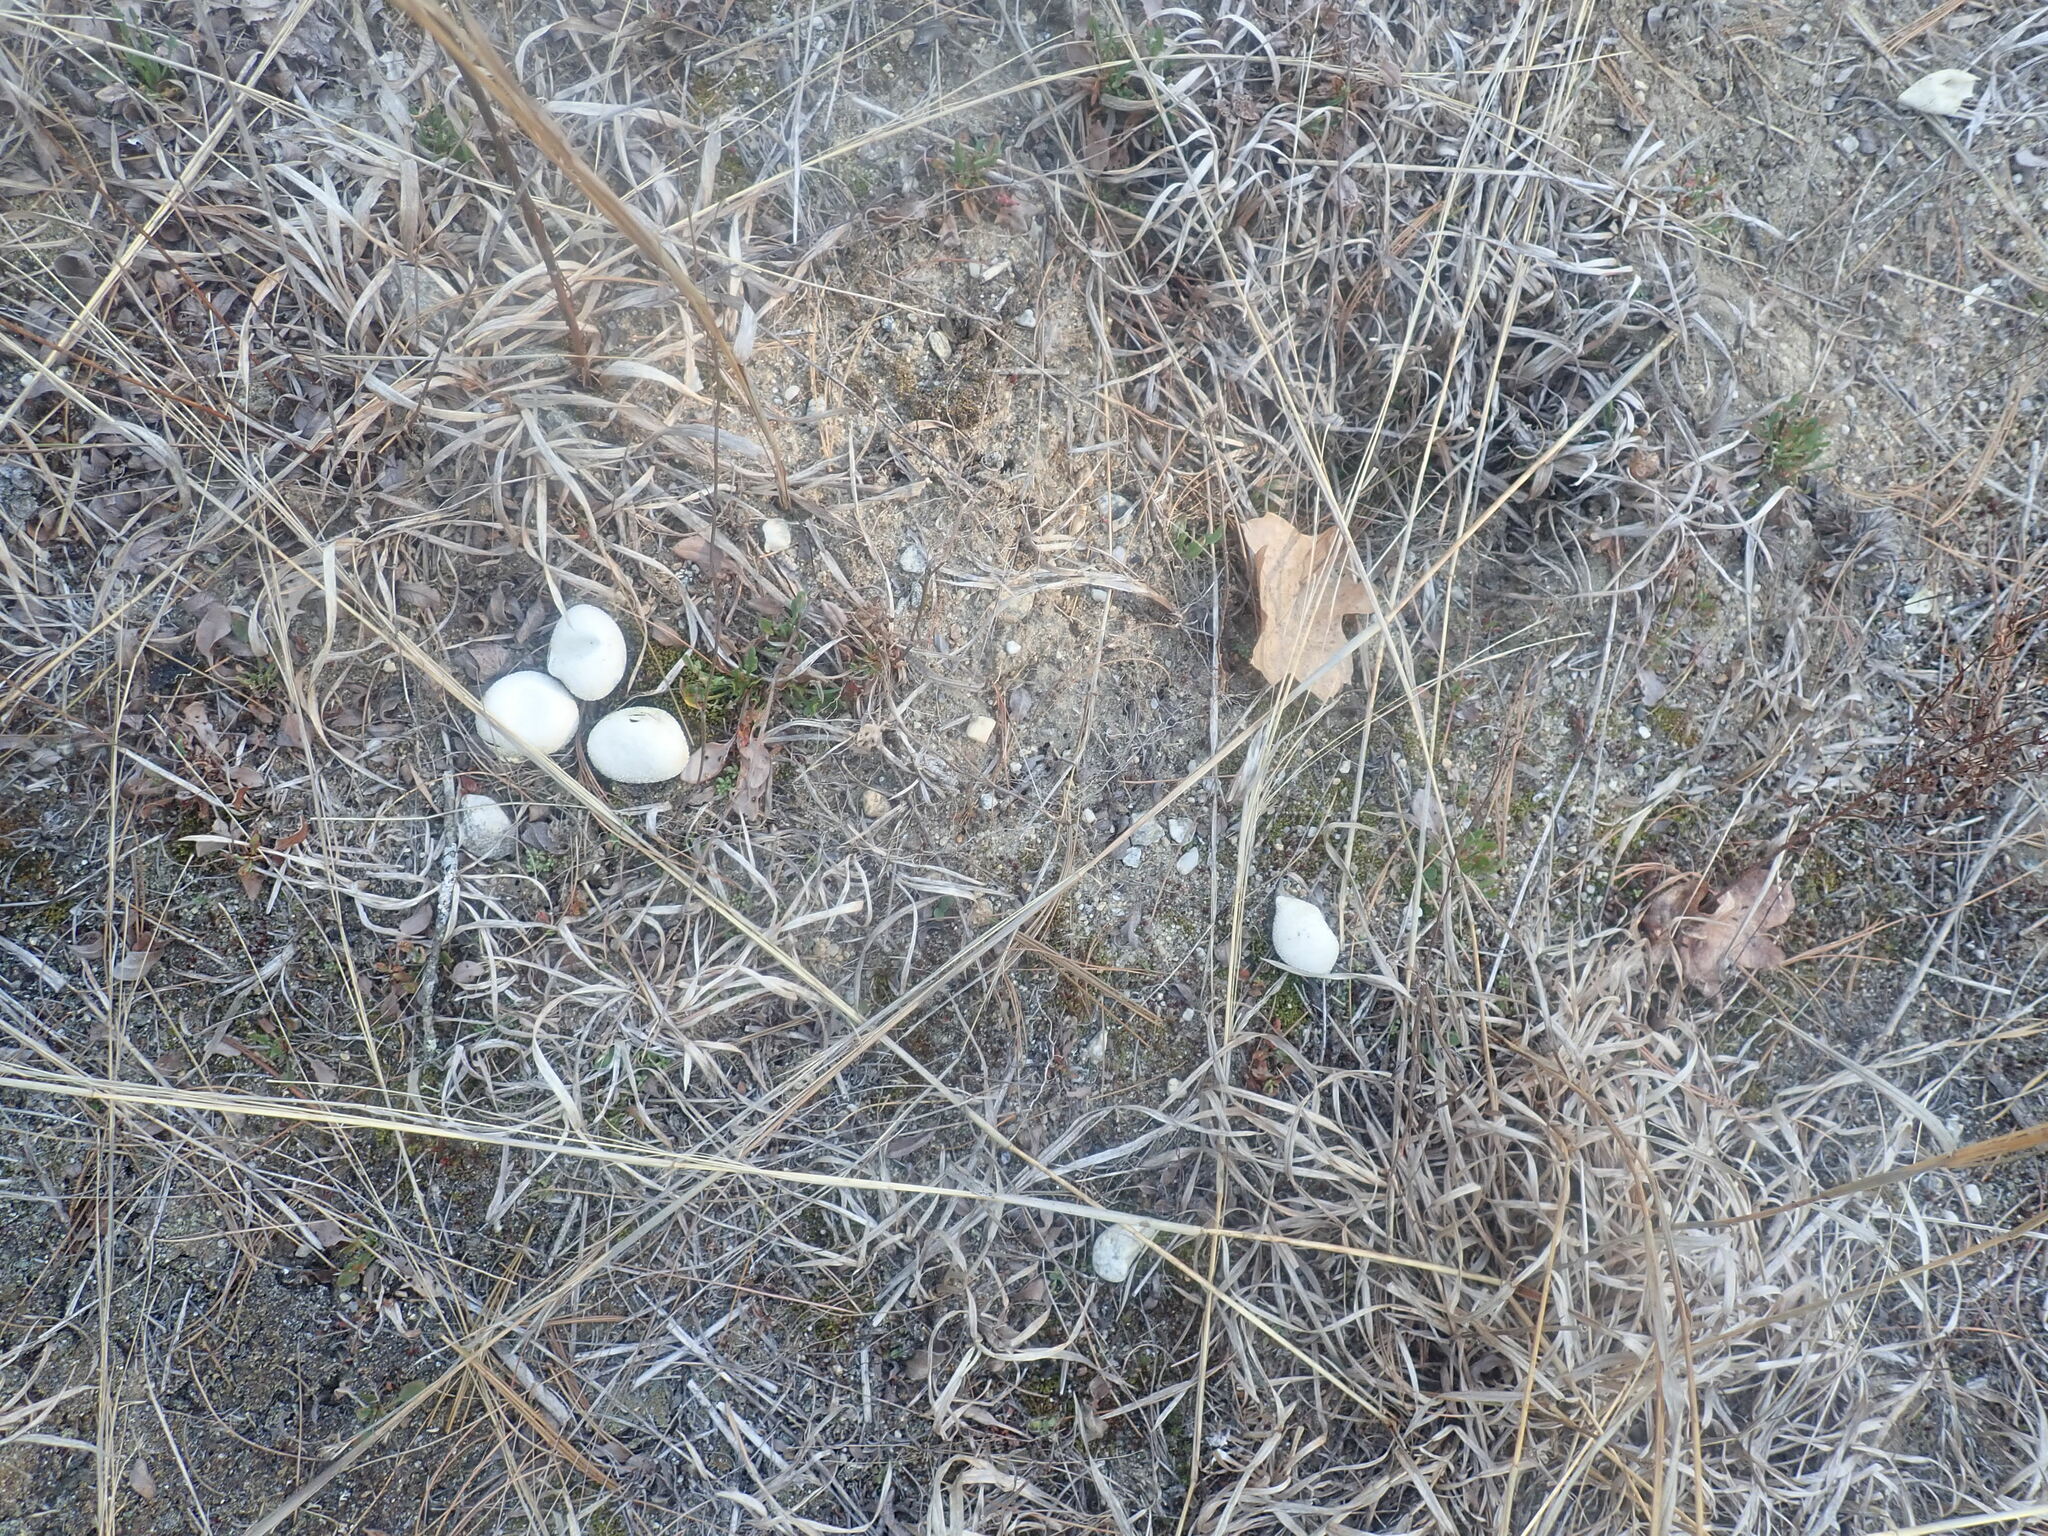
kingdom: Animalia
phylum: Chordata
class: Squamata
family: Colubridae
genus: Coluber
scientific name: Coluber constrictor
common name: Eastern racer
